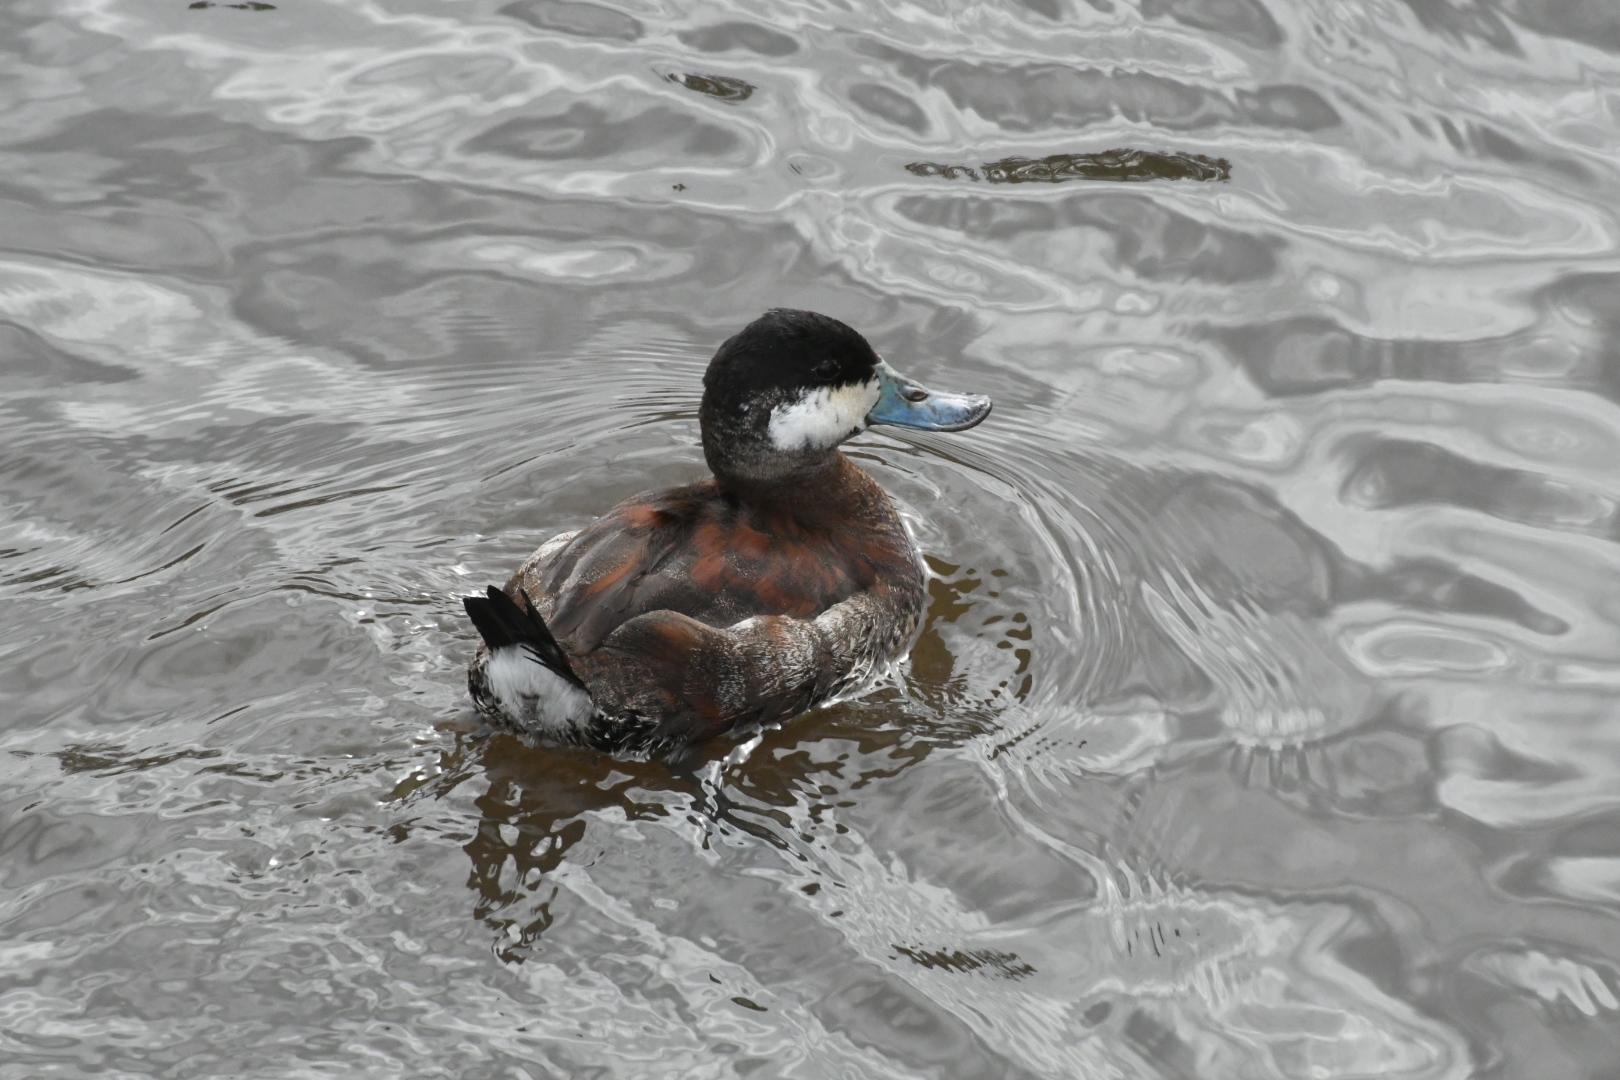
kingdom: Animalia
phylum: Chordata
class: Aves
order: Anseriformes
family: Anatidae
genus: Oxyura
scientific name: Oxyura jamaicensis
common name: Ruddy duck
